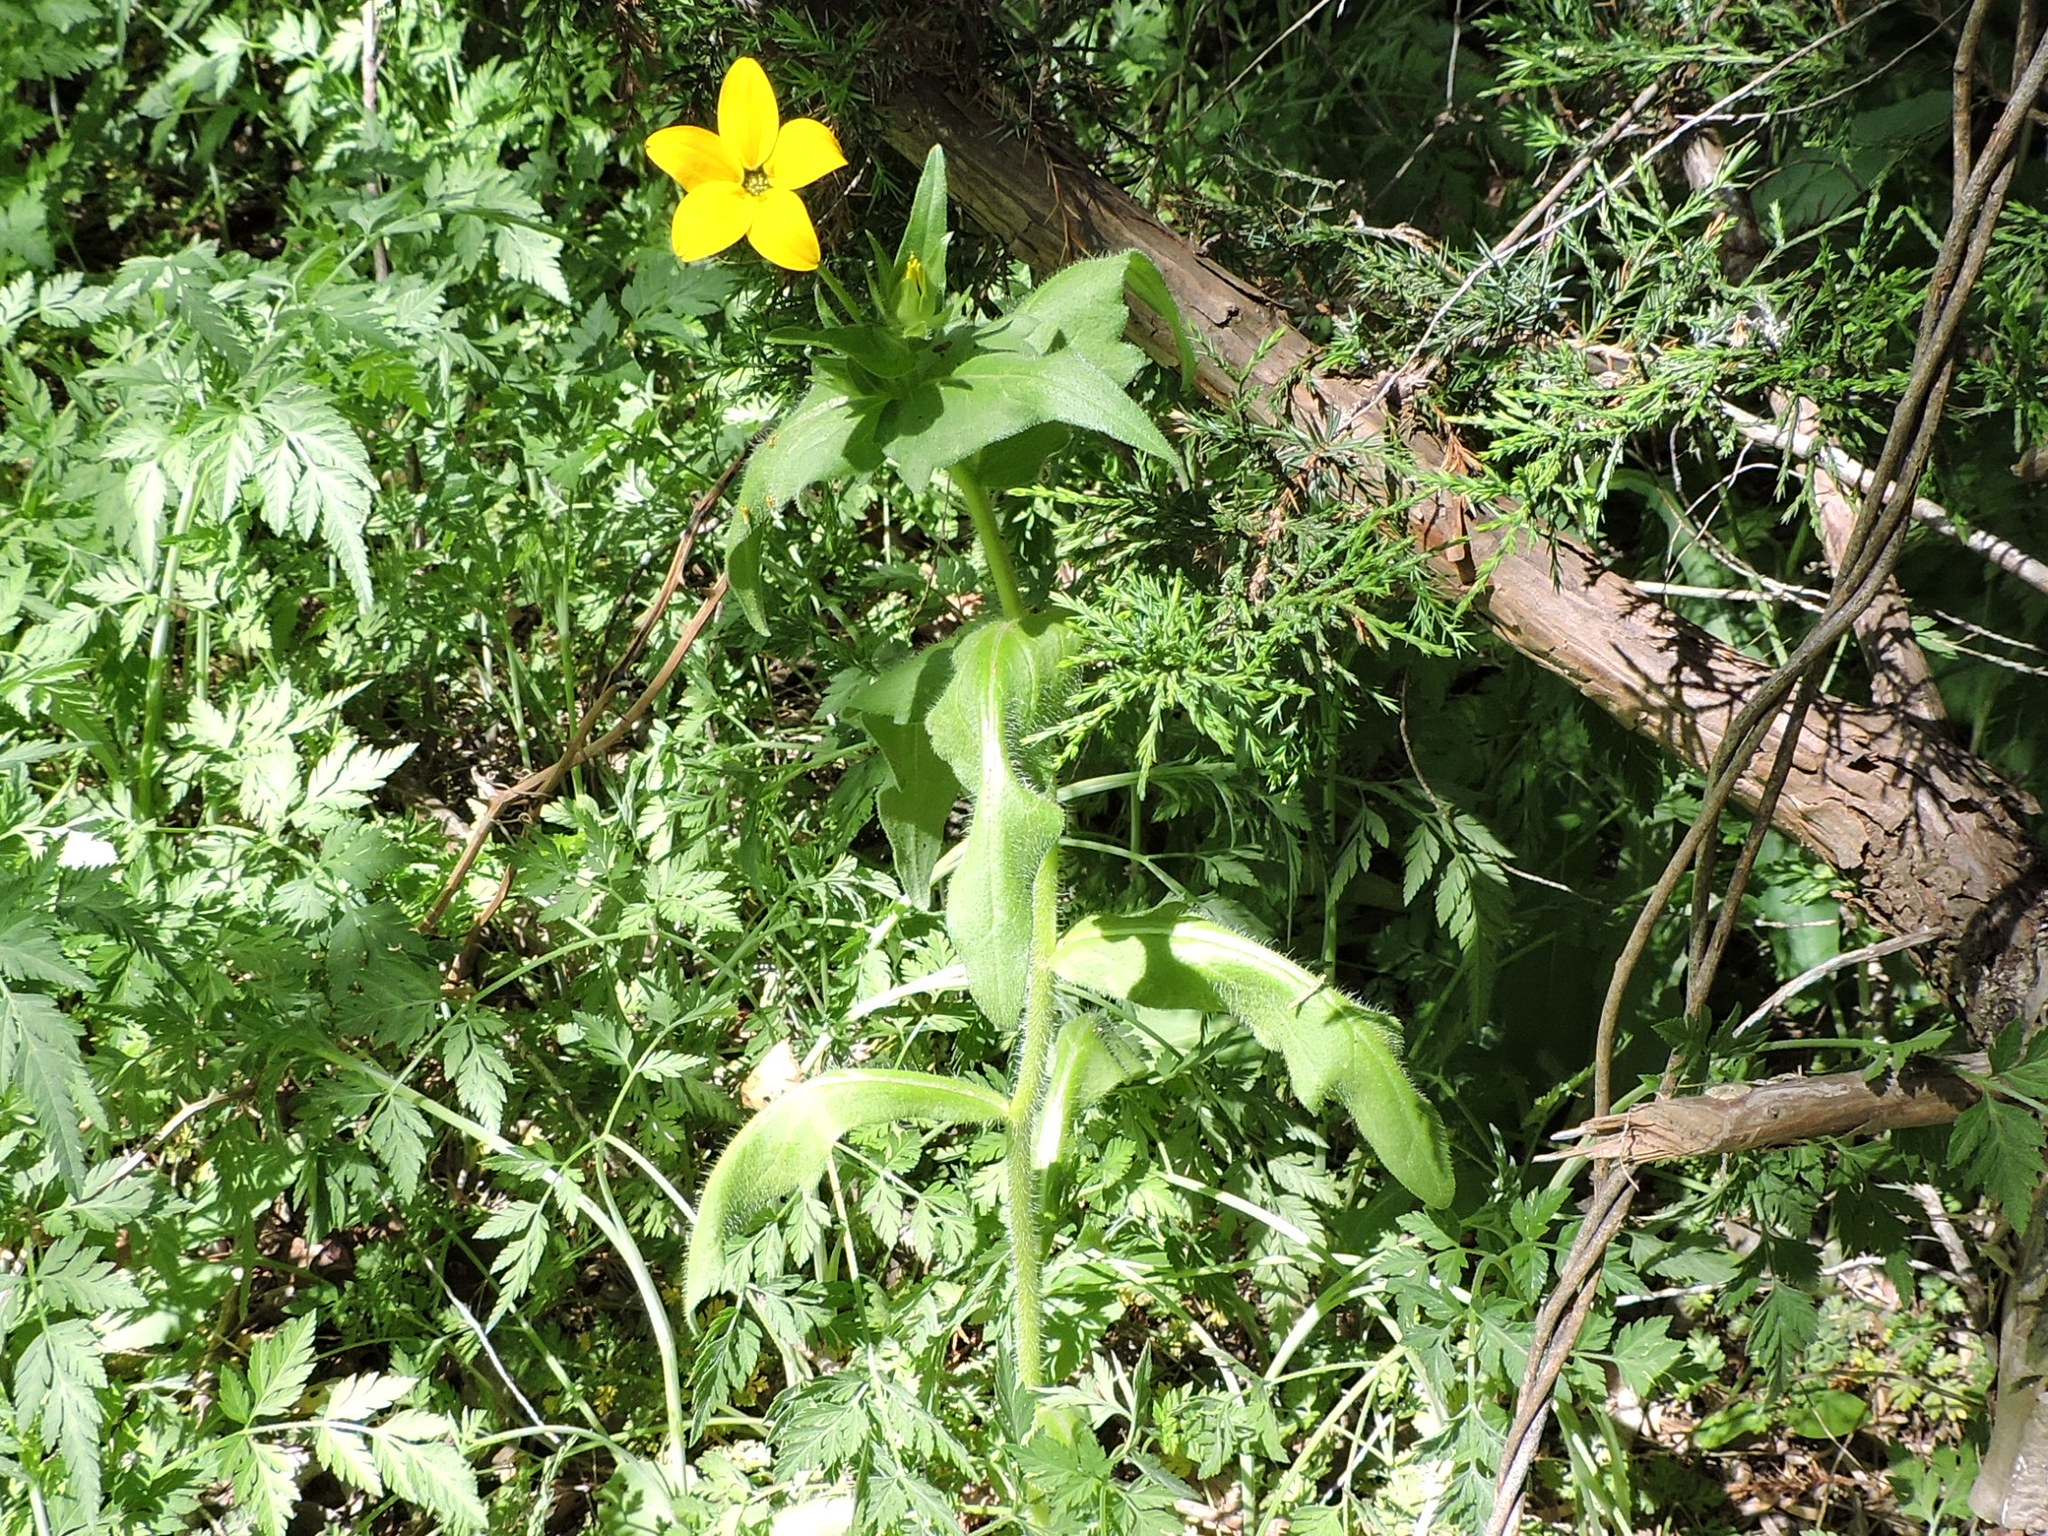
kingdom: Plantae
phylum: Tracheophyta
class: Magnoliopsida
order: Asterales
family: Asteraceae
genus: Lindheimera
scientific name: Lindheimera texana
